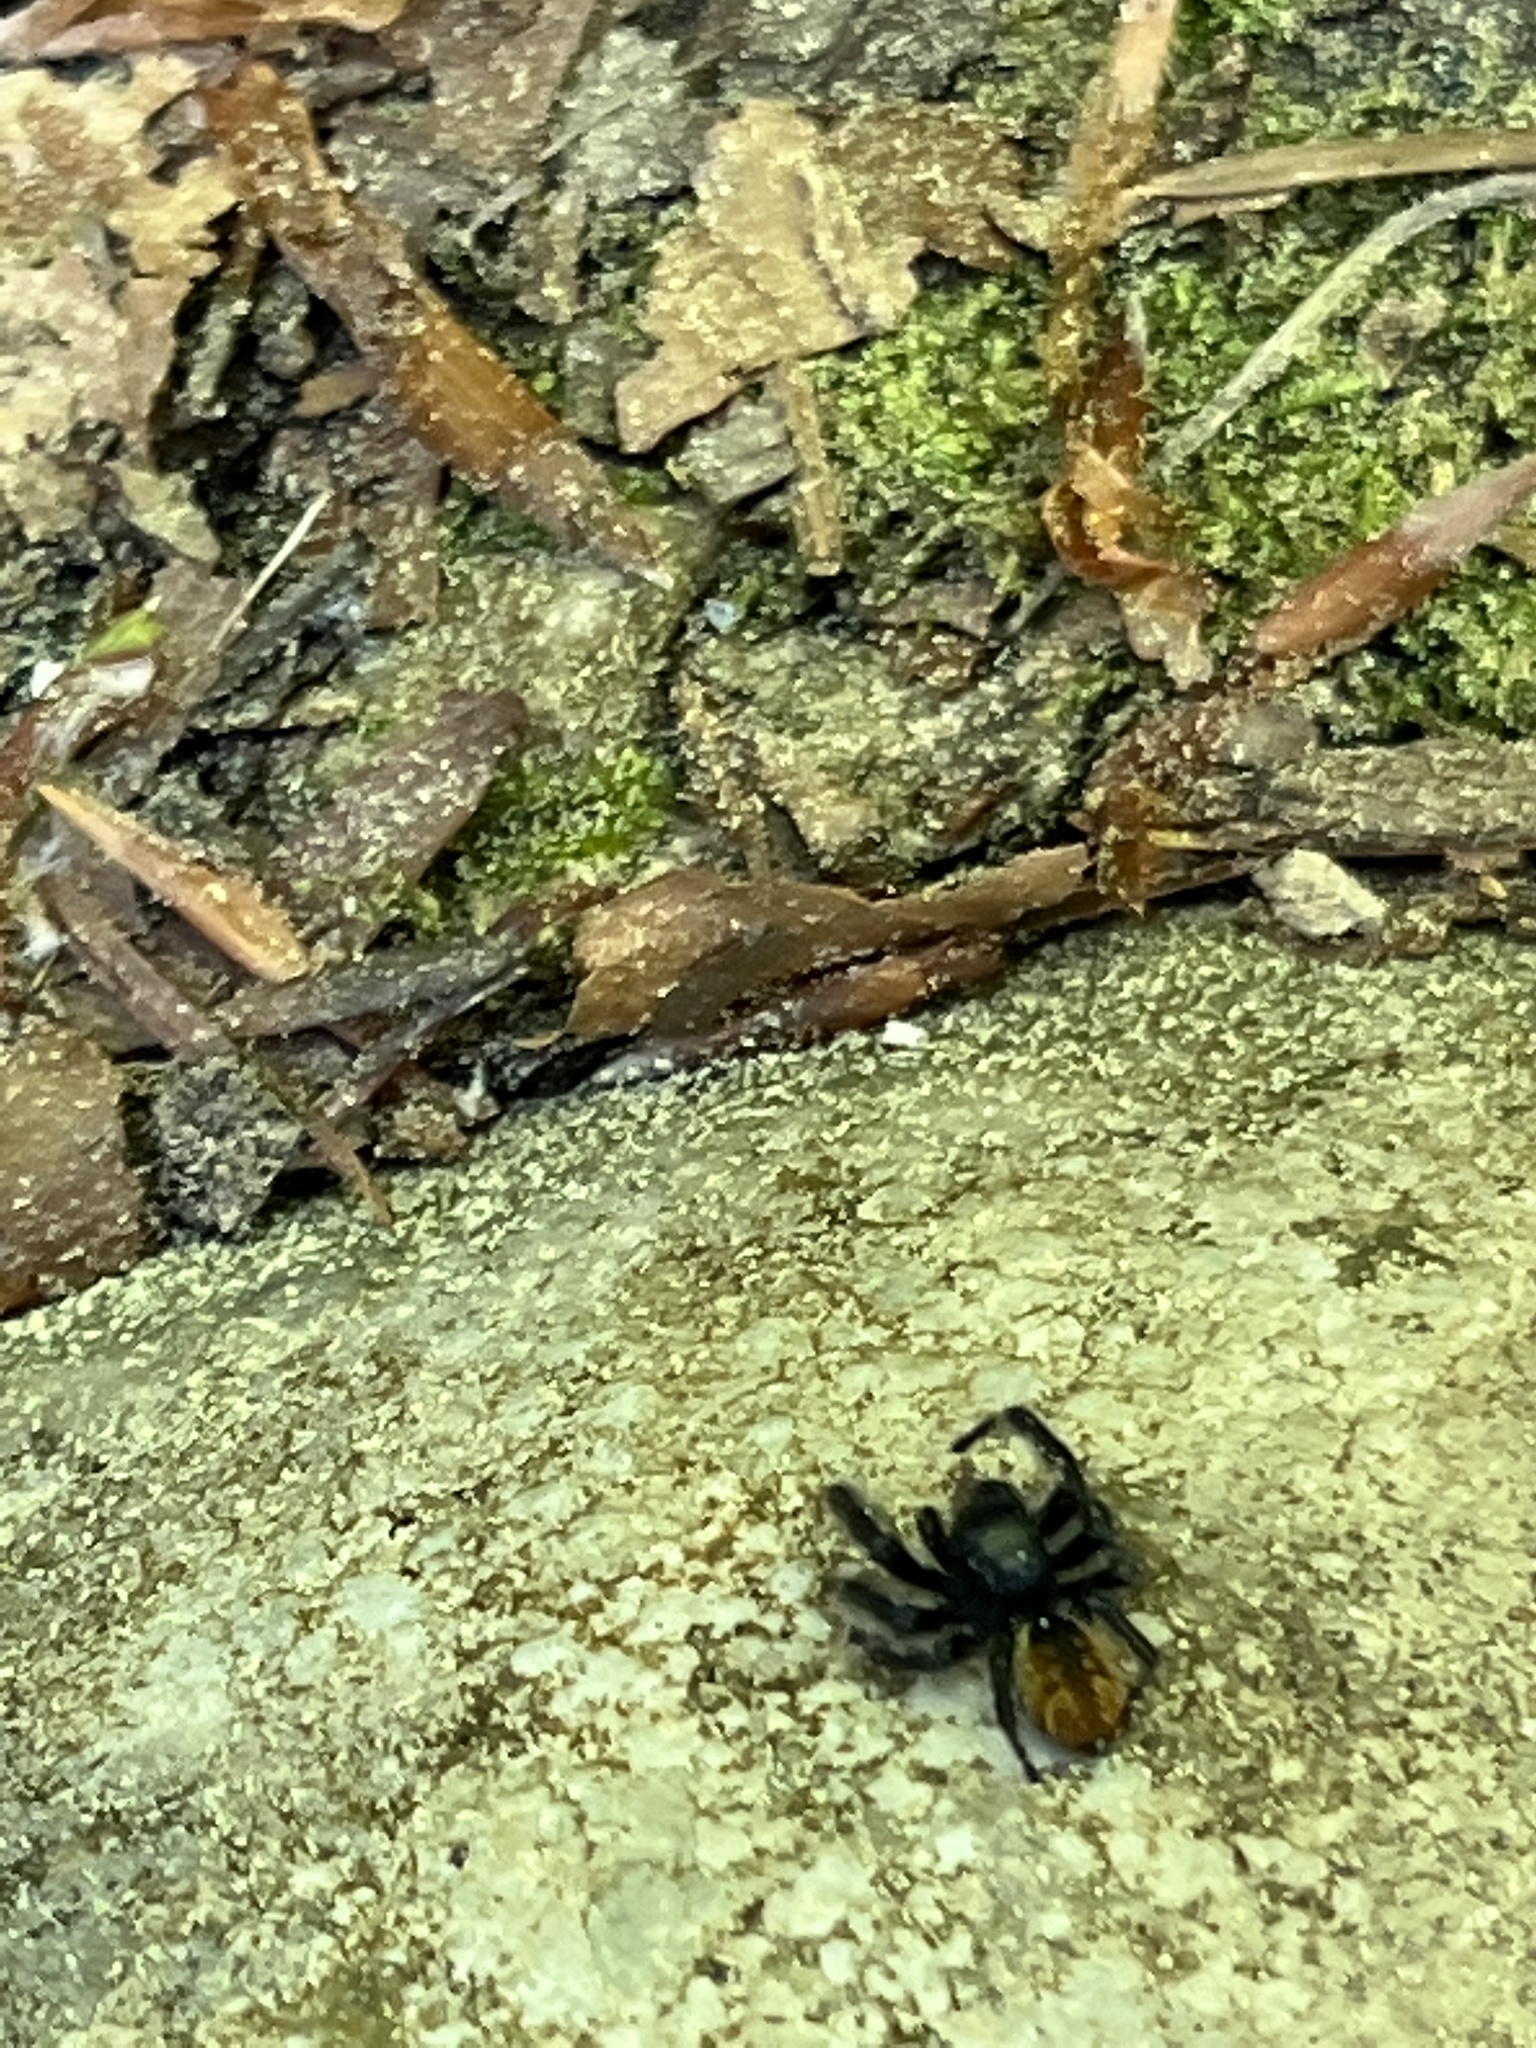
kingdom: Animalia
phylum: Arthropoda
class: Arachnida
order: Araneae
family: Salticidae
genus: Carrhotus
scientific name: Carrhotus xanthogramma
